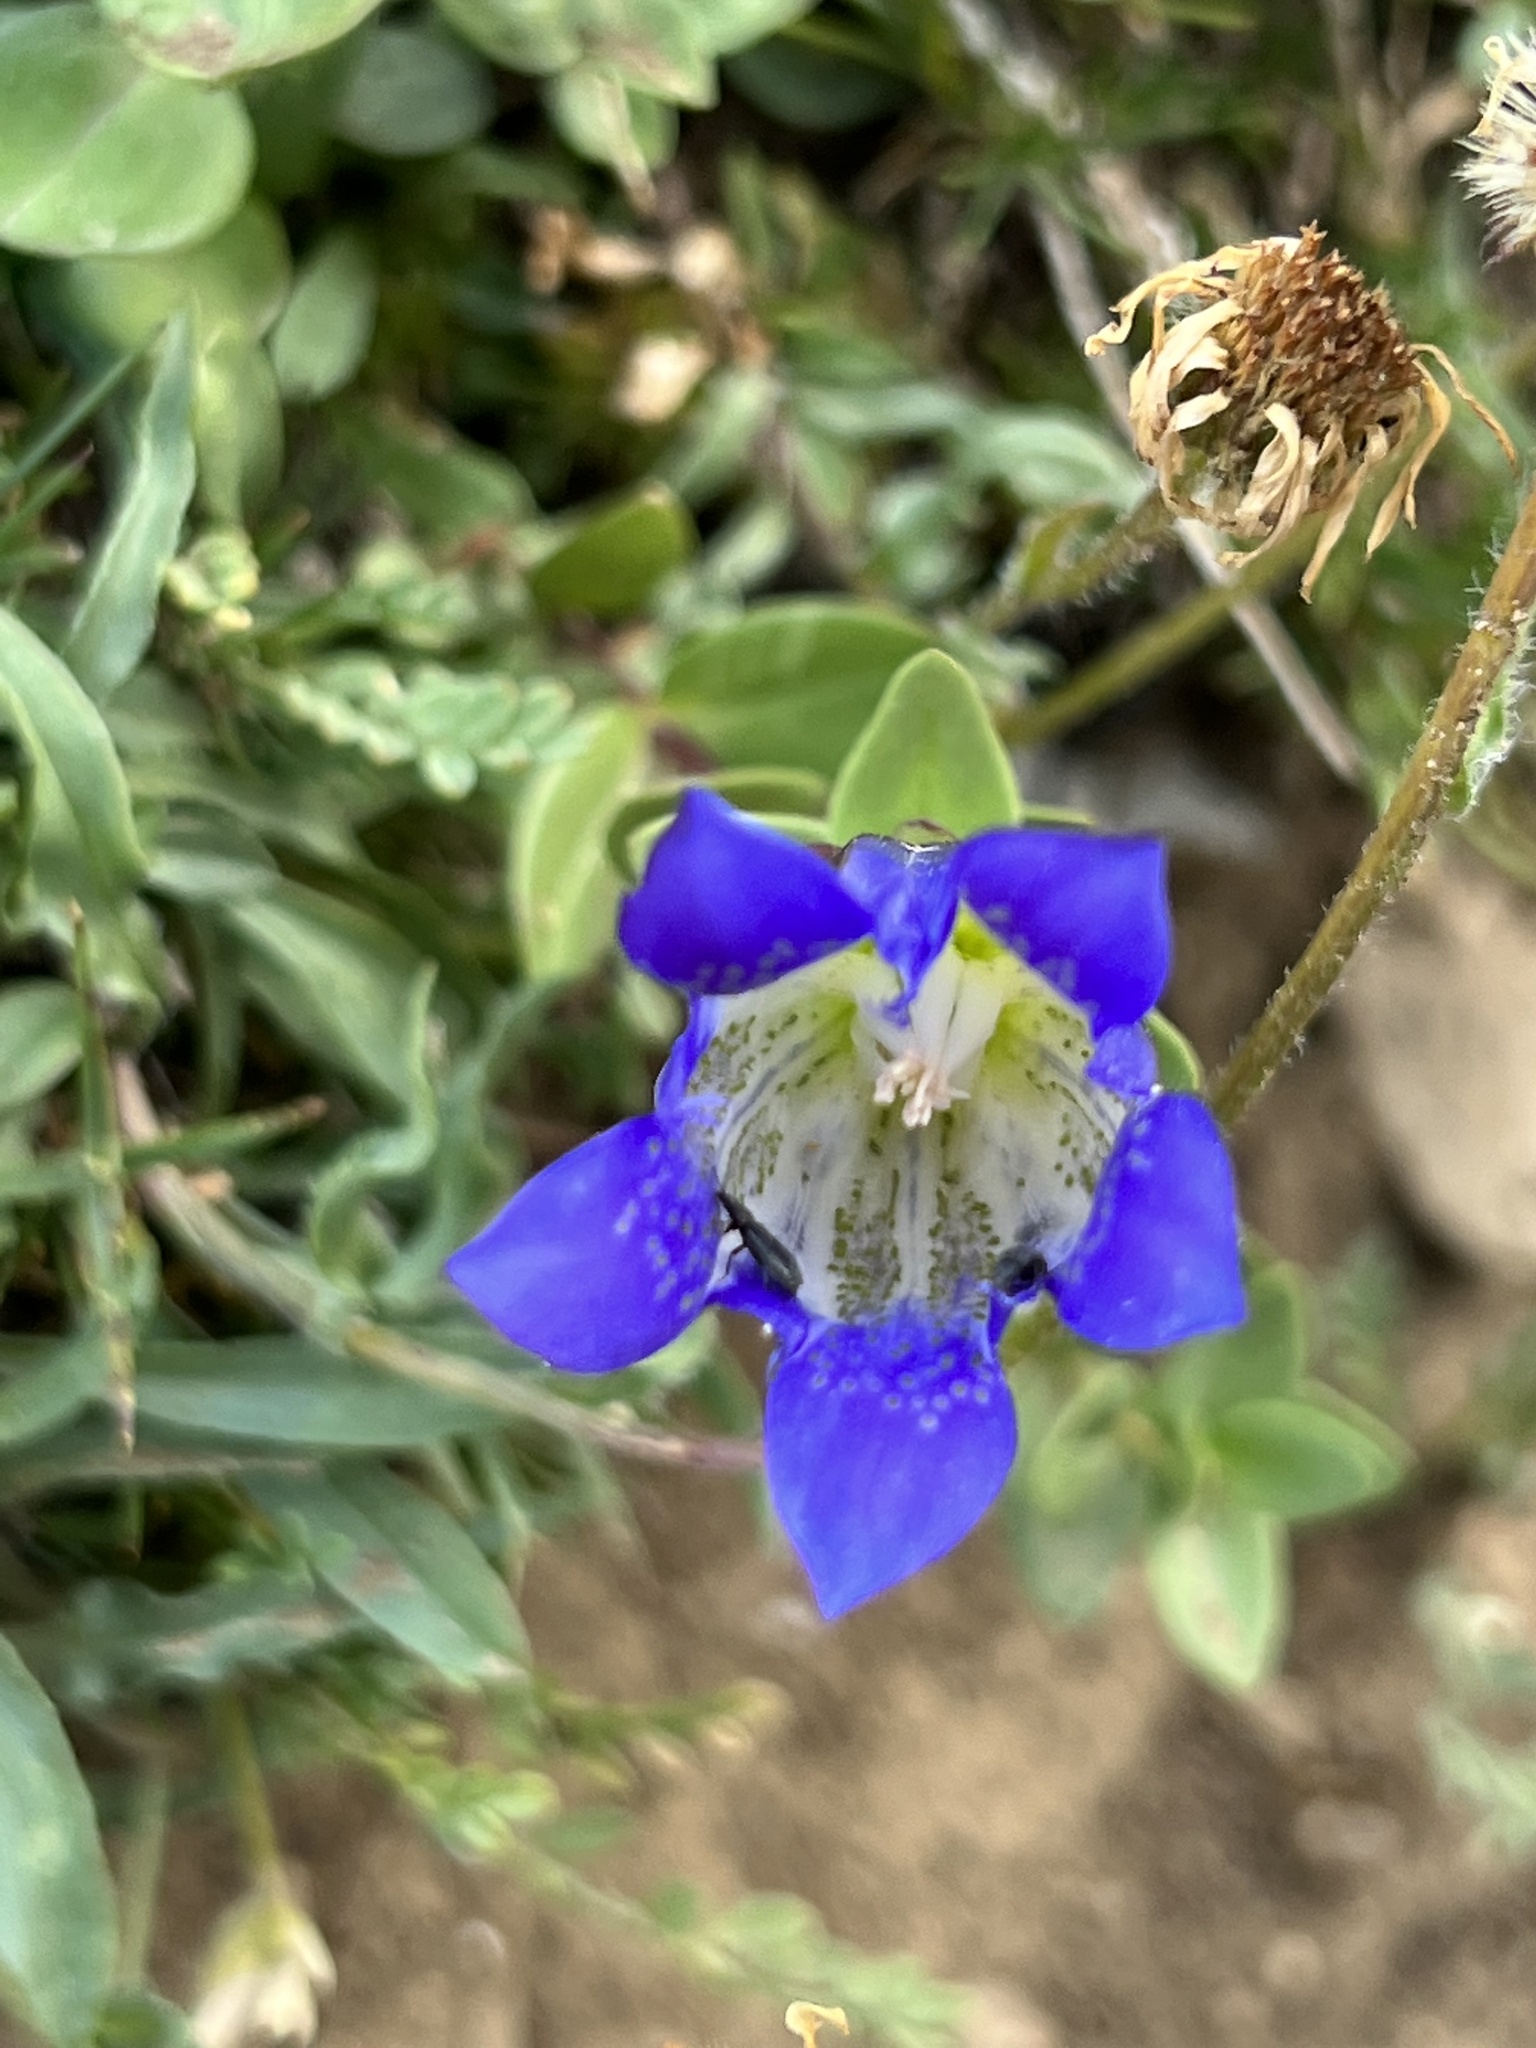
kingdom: Plantae
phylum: Tracheophyta
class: Magnoliopsida
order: Gentianales
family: Gentianaceae
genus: Gentiana
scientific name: Gentiana calycosa
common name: Rainier pleated gentian
